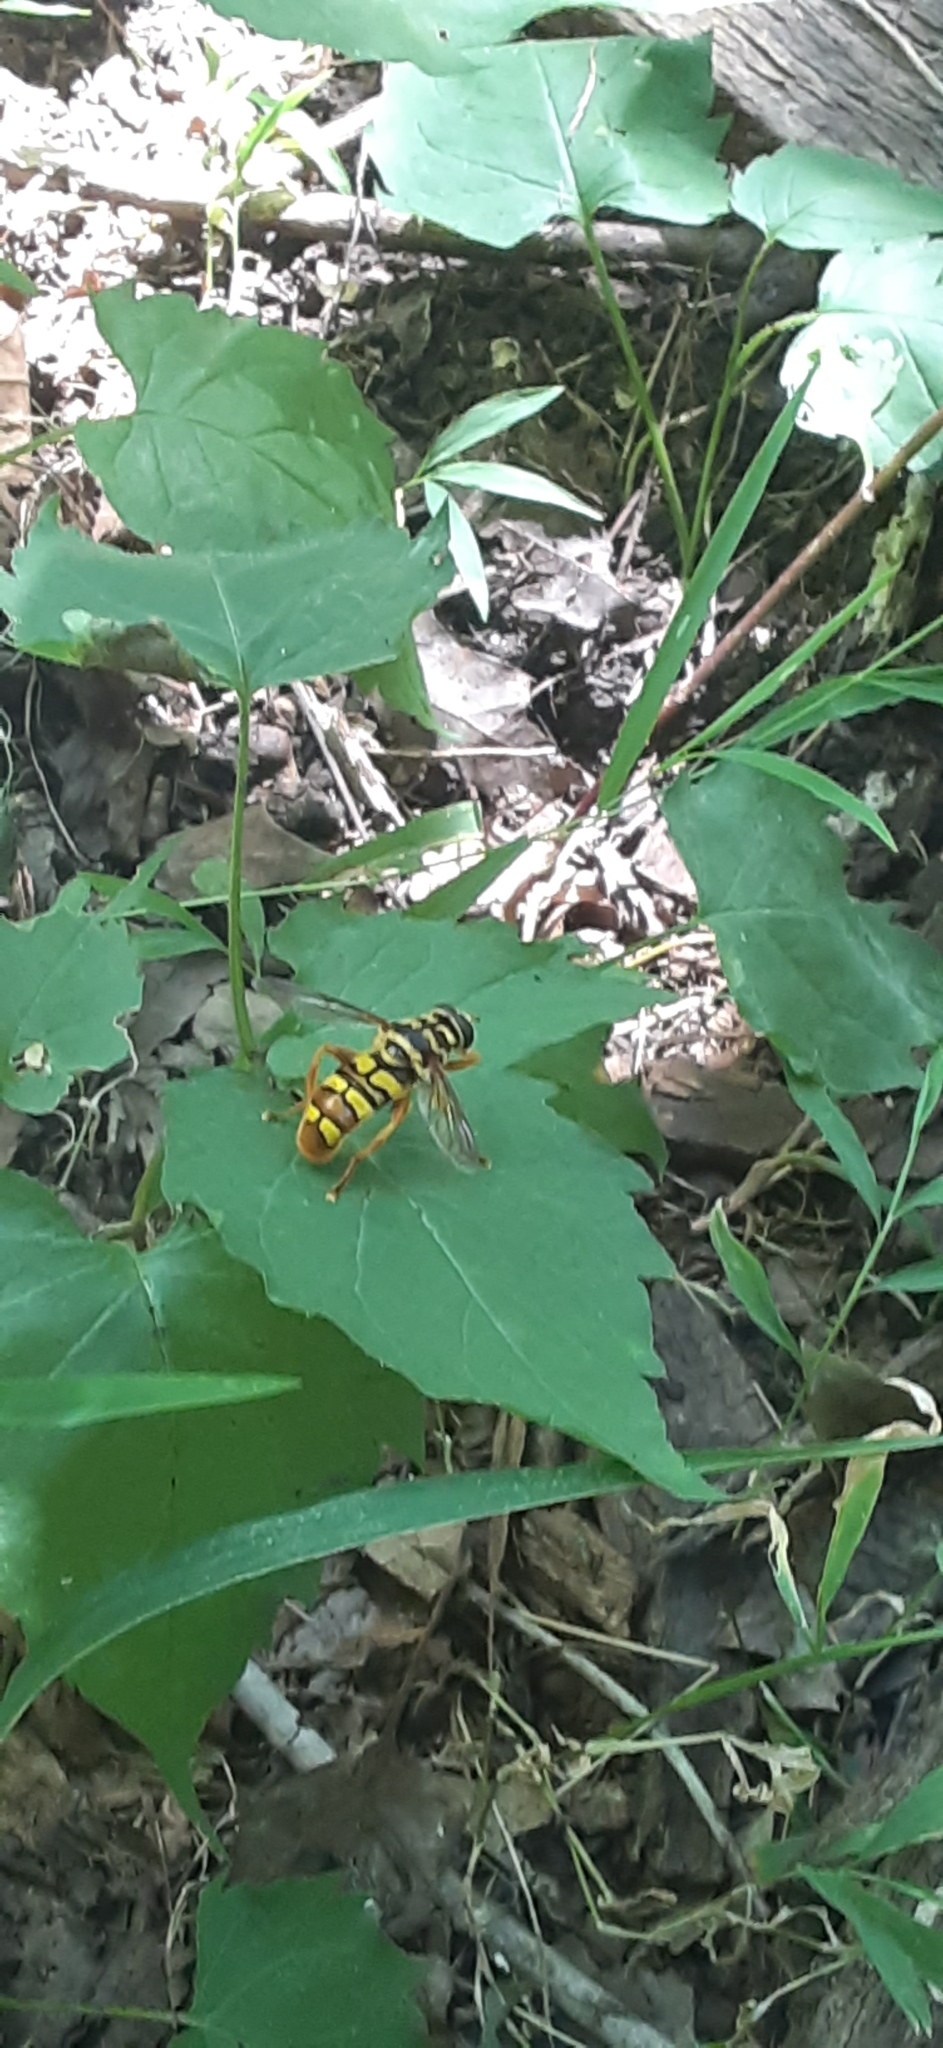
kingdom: Animalia
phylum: Arthropoda
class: Insecta
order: Diptera
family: Syrphidae
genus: Milesia
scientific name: Milesia virginiensis
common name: Virginia giant
